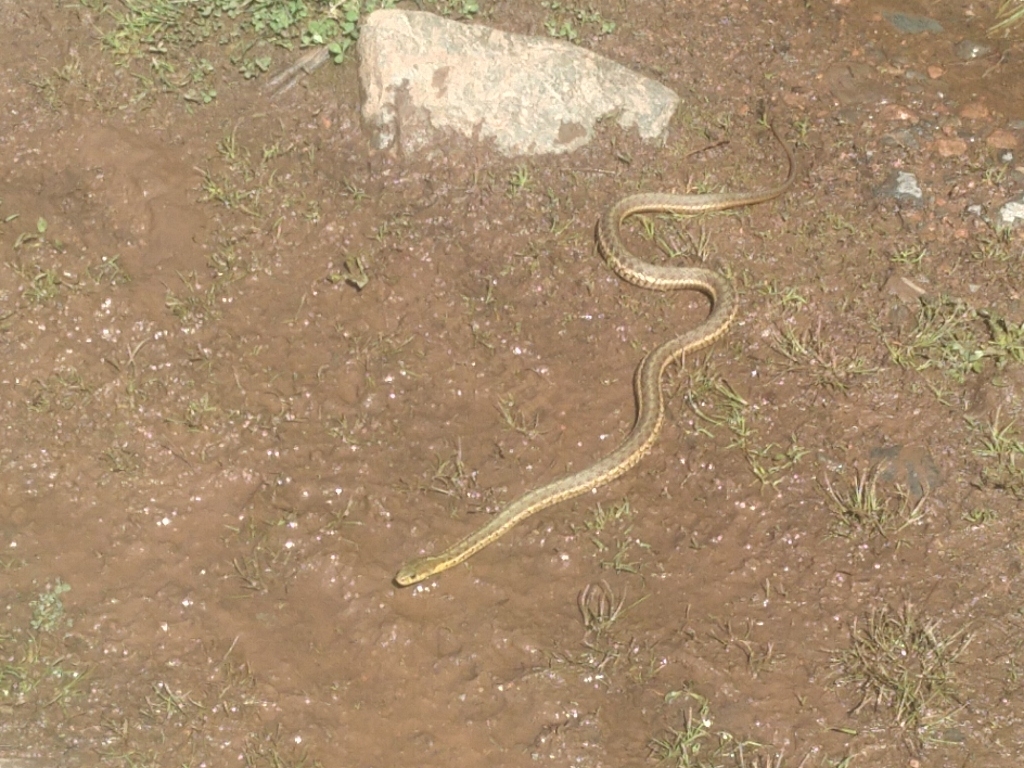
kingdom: Animalia
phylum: Chordata
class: Squamata
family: Colubridae
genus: Thamnophis
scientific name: Thamnophis sirtalis
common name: Common garter snake
